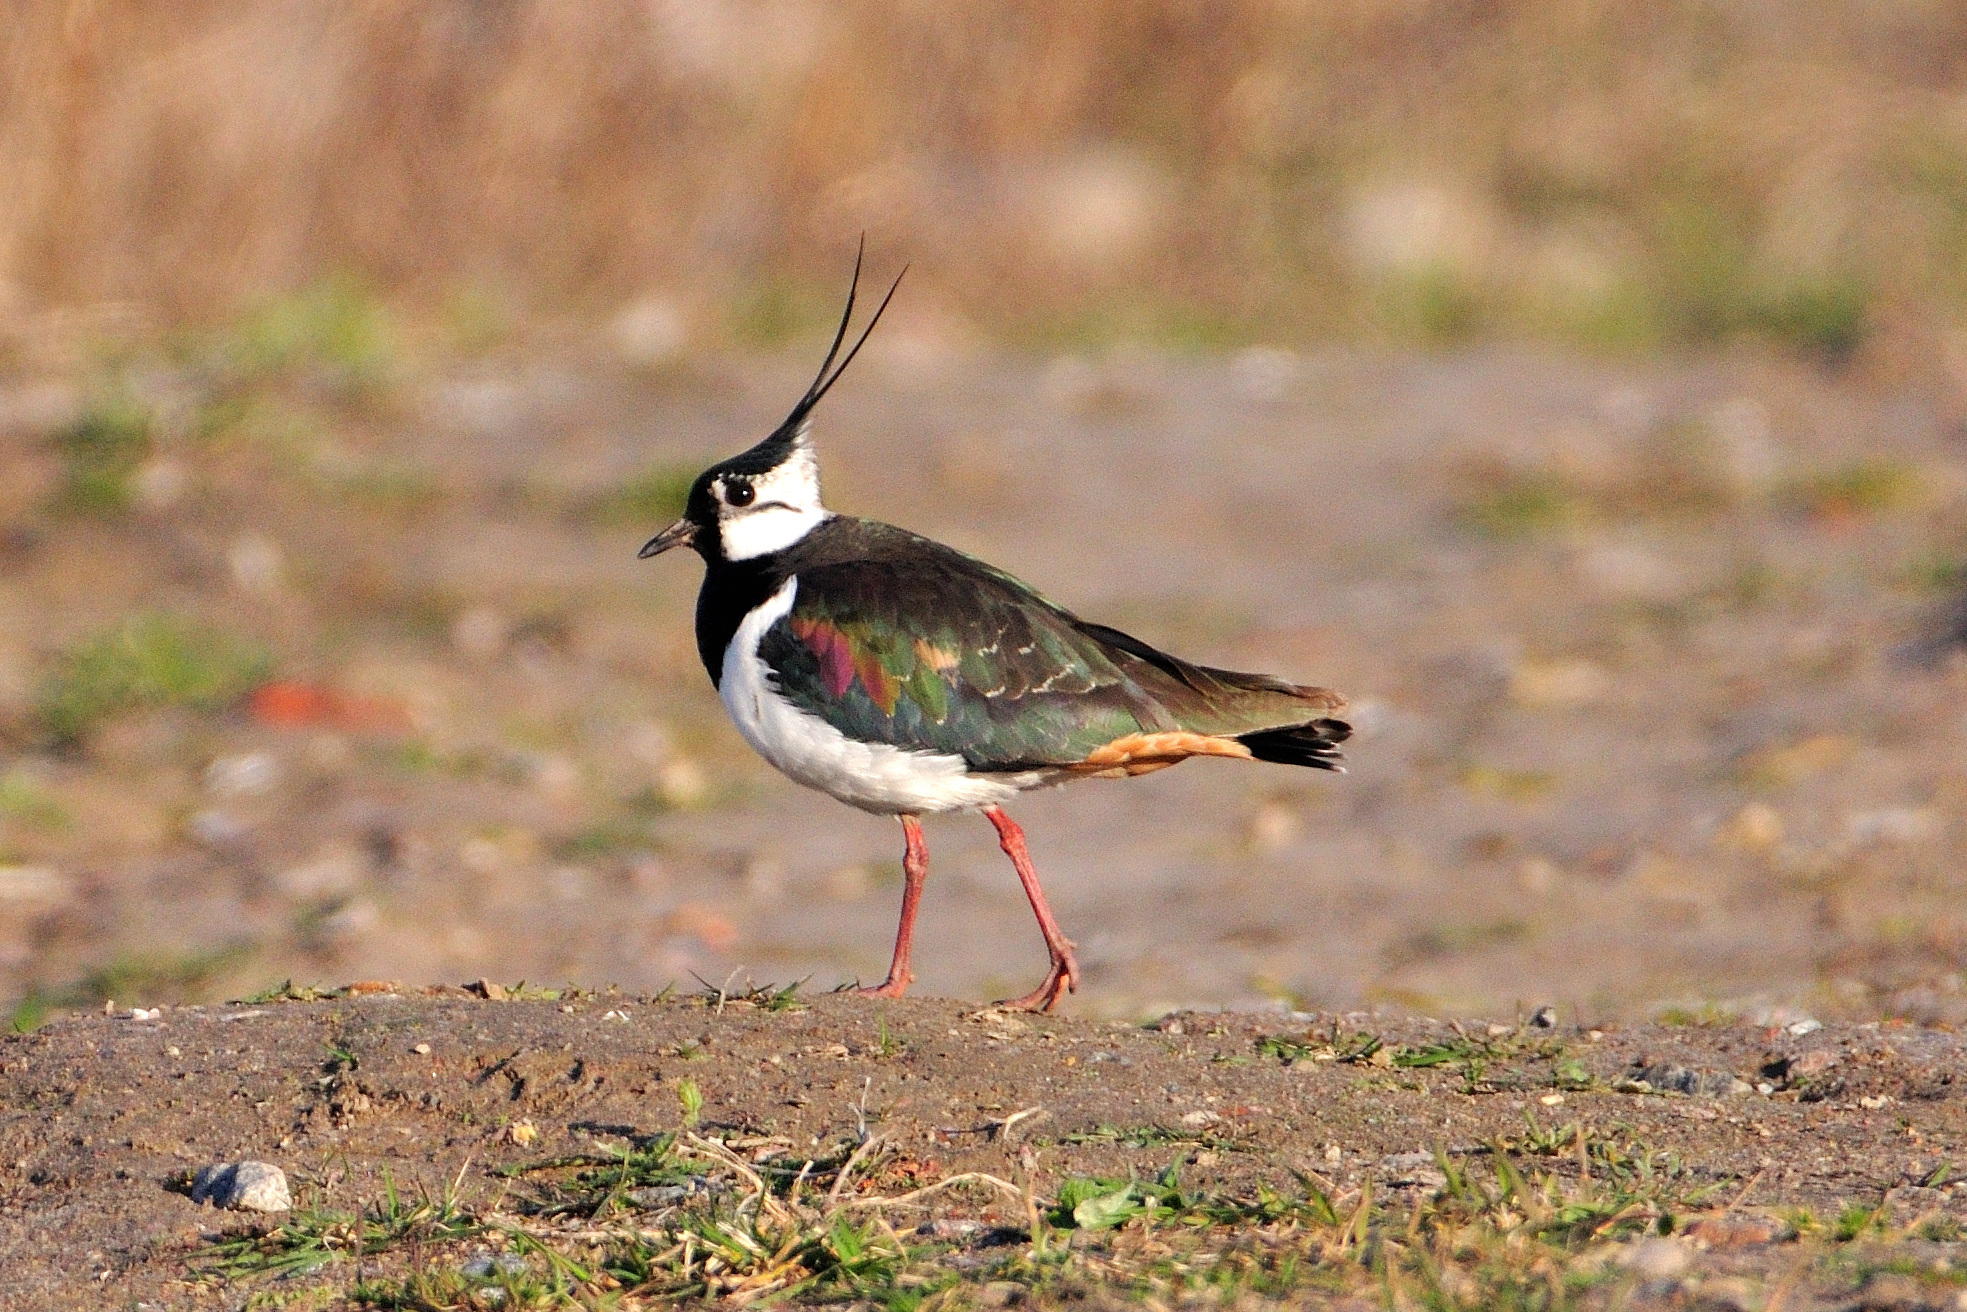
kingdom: Animalia
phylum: Chordata
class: Aves
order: Charadriiformes
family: Charadriidae
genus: Vanellus
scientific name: Vanellus vanellus
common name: Northern lapwing
